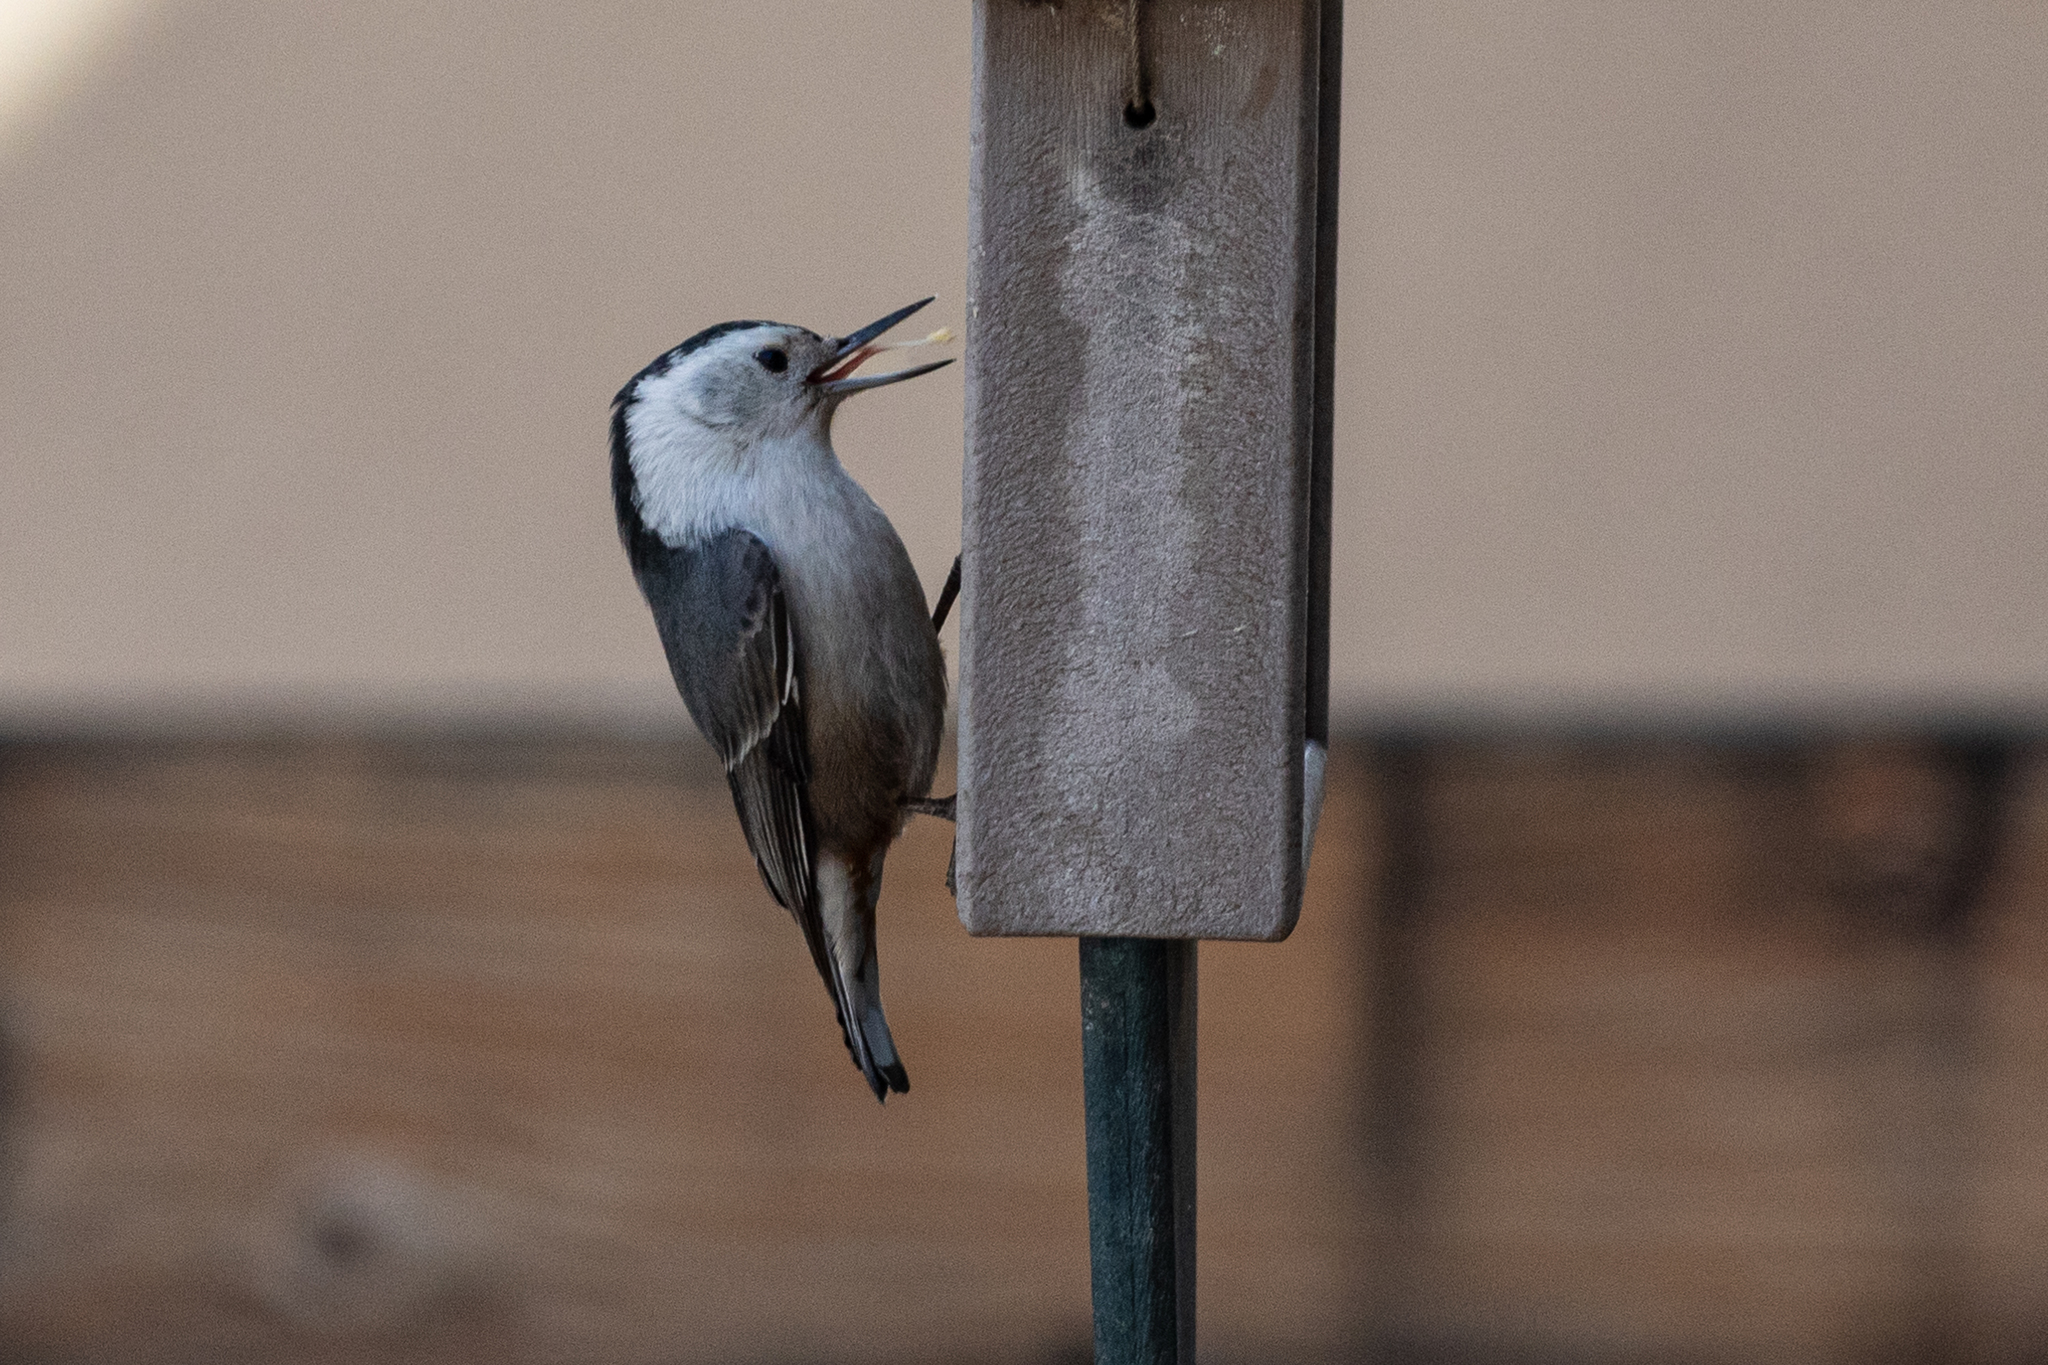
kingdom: Animalia
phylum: Chordata
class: Aves
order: Passeriformes
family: Sittidae
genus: Sitta
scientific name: Sitta carolinensis
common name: White-breasted nuthatch
